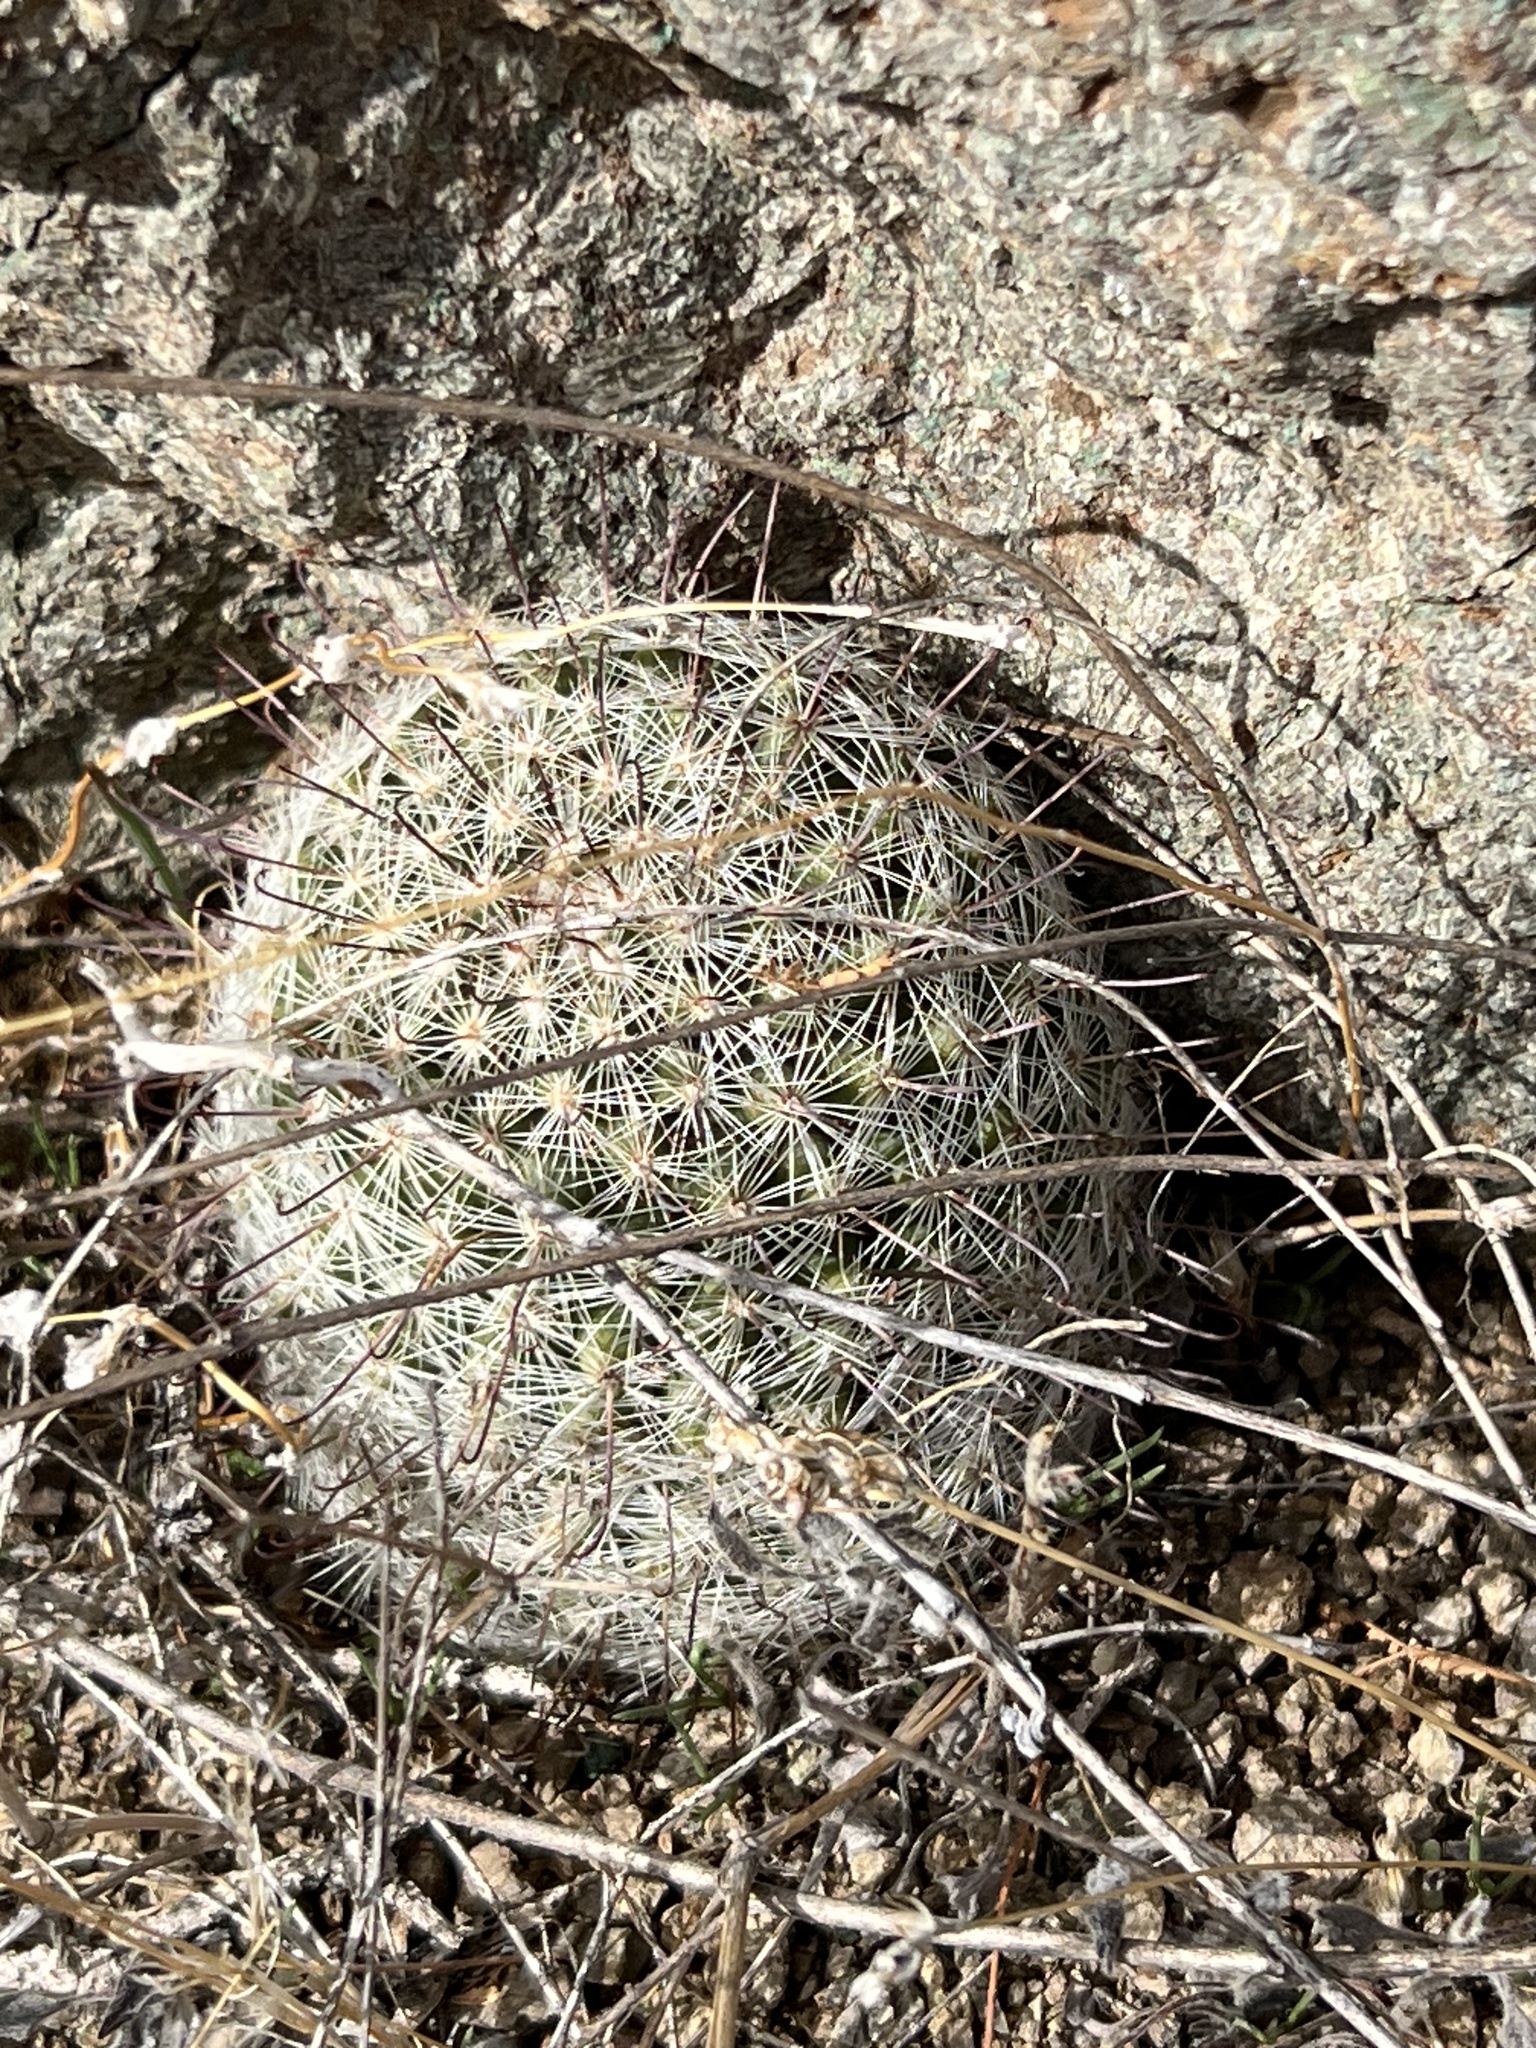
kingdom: Plantae
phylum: Tracheophyta
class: Magnoliopsida
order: Caryophyllales
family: Cactaceae
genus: Cochemiea
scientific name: Cochemiea grahamii
